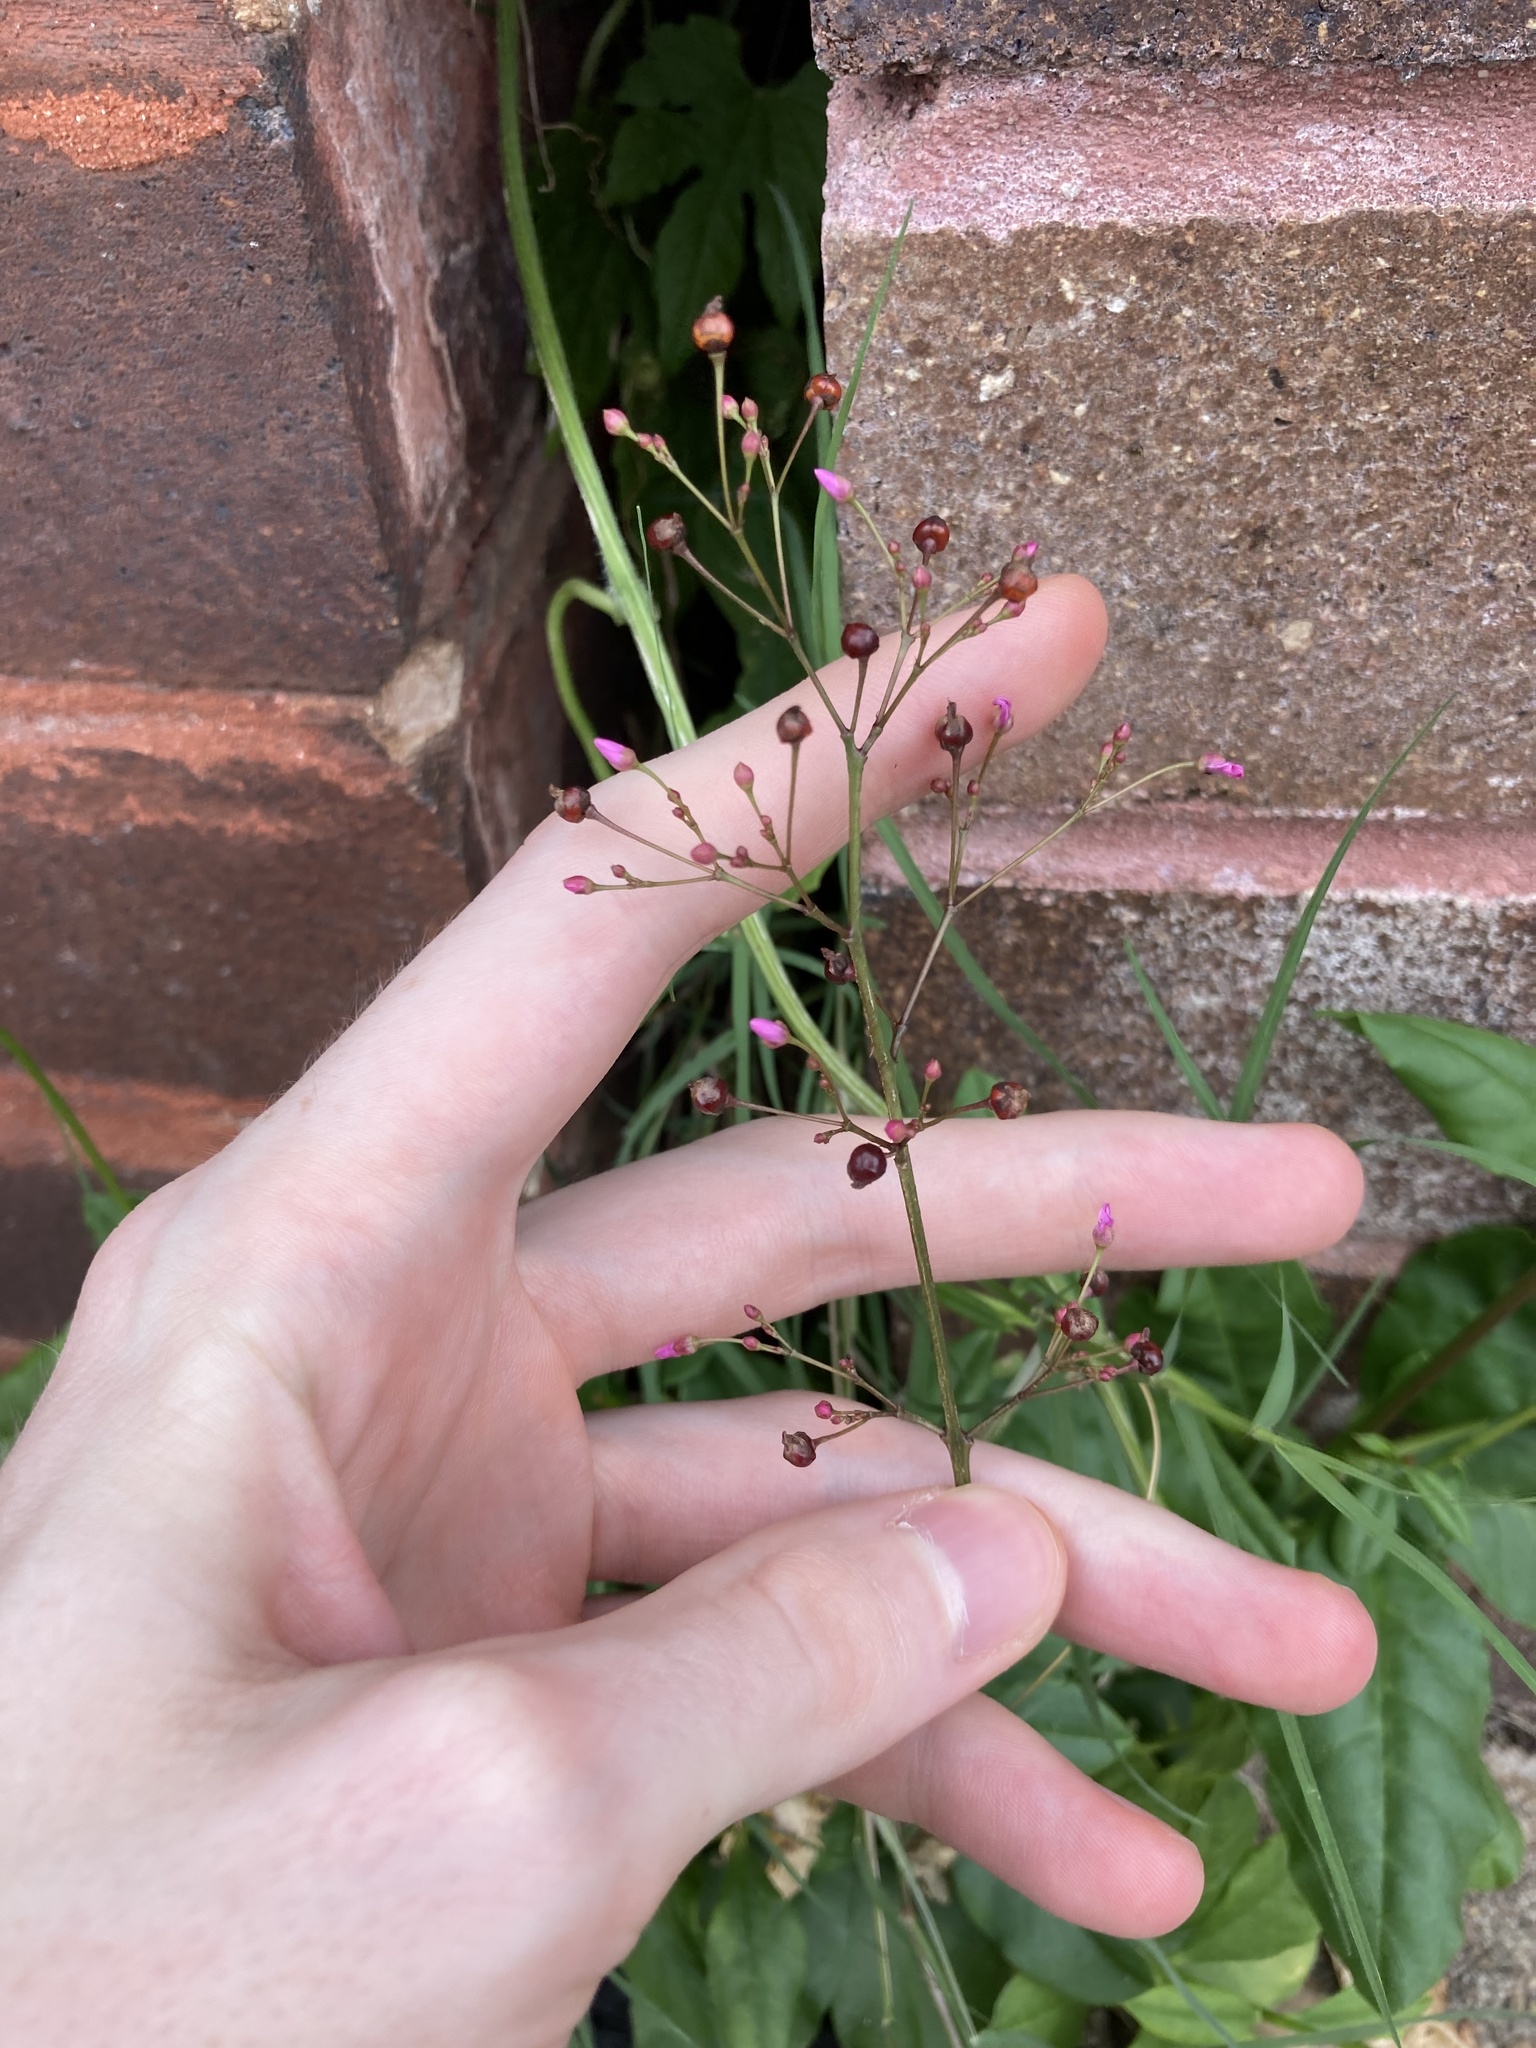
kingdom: Plantae
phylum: Tracheophyta
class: Magnoliopsida
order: Caryophyllales
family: Talinaceae
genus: Talinum
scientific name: Talinum paniculatum
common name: Jewels of opar
